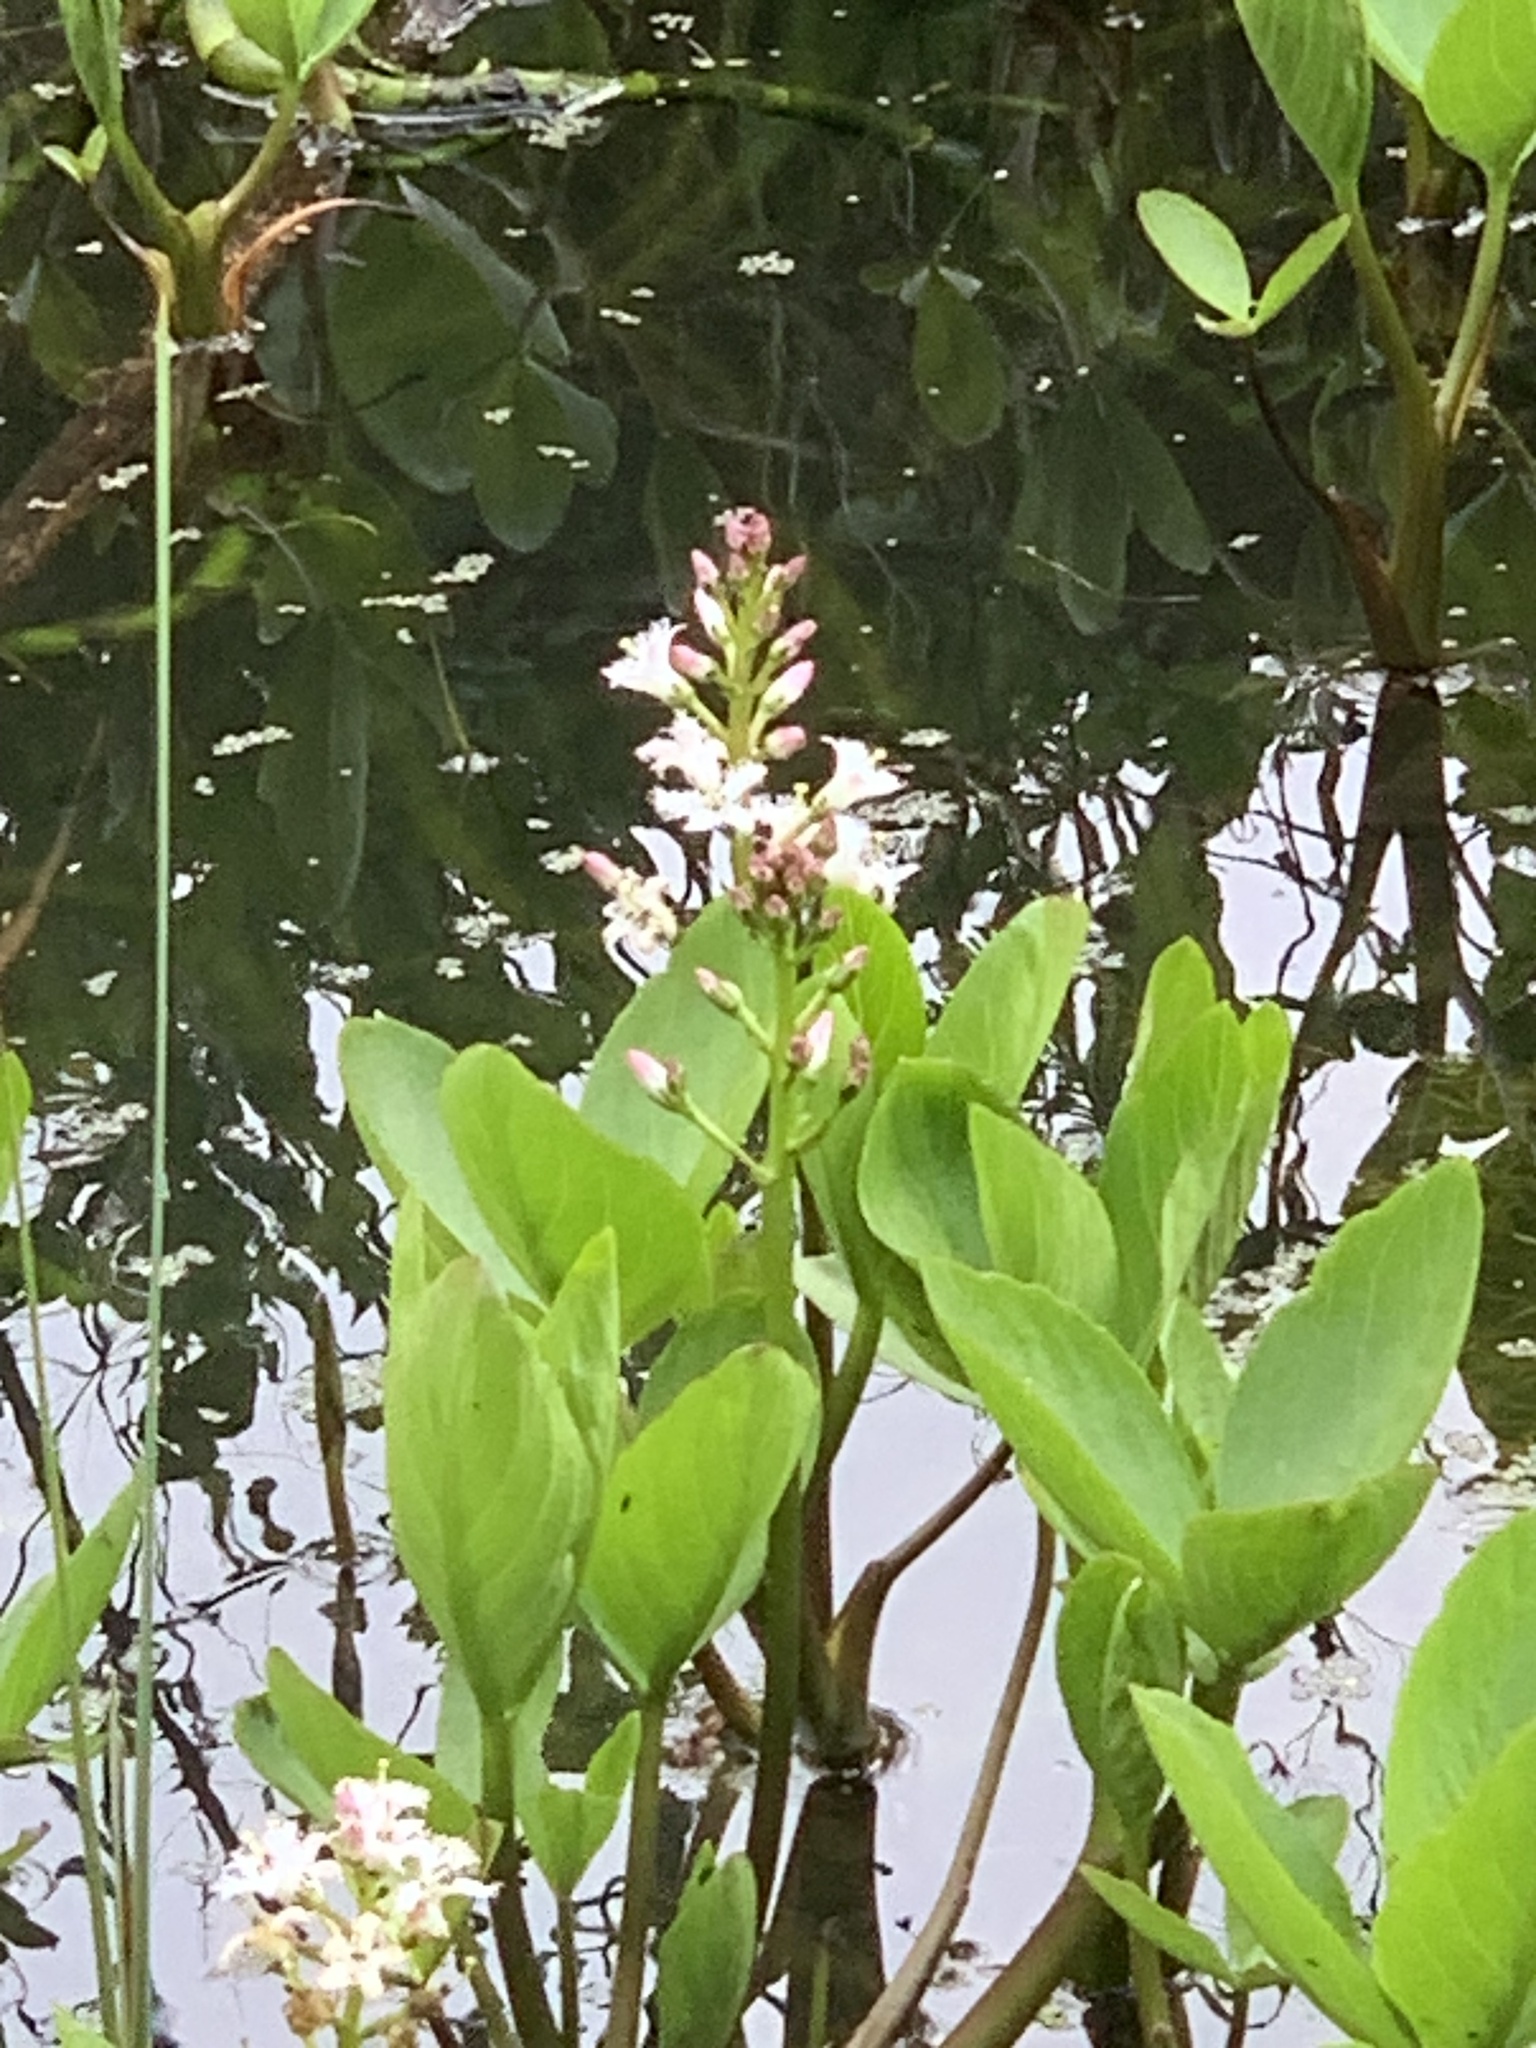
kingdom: Plantae
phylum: Tracheophyta
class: Magnoliopsida
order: Asterales
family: Menyanthaceae
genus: Menyanthes
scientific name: Menyanthes trifoliata
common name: Bogbean
